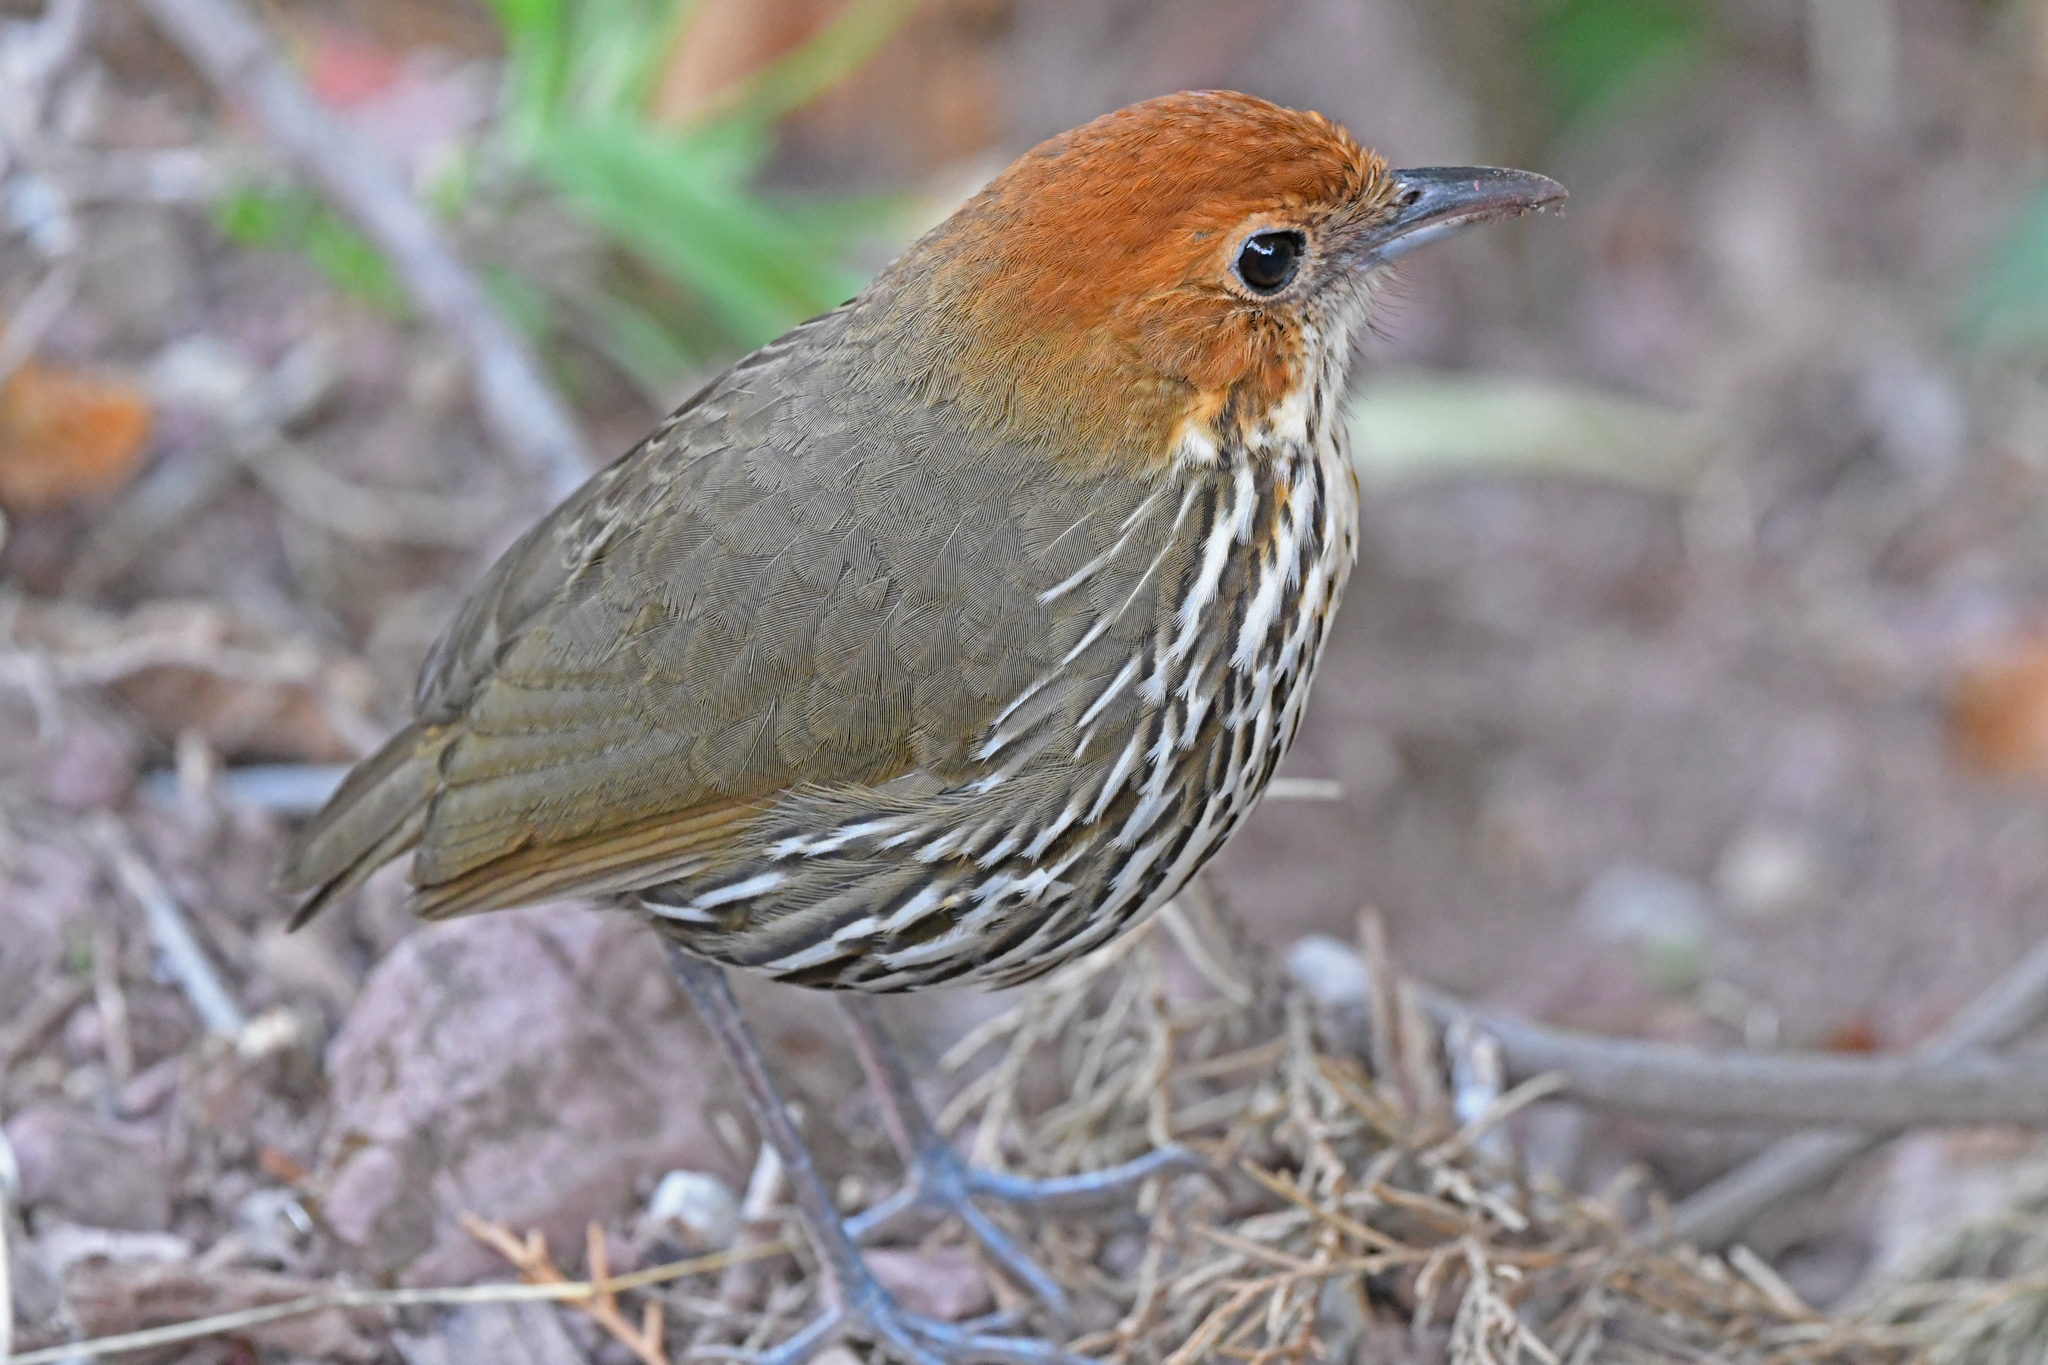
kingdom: Animalia
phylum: Chordata
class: Aves
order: Passeriformes
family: Grallariidae
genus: Grallaria
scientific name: Grallaria ruficapilla
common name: Chestnut-crowned antpitta
